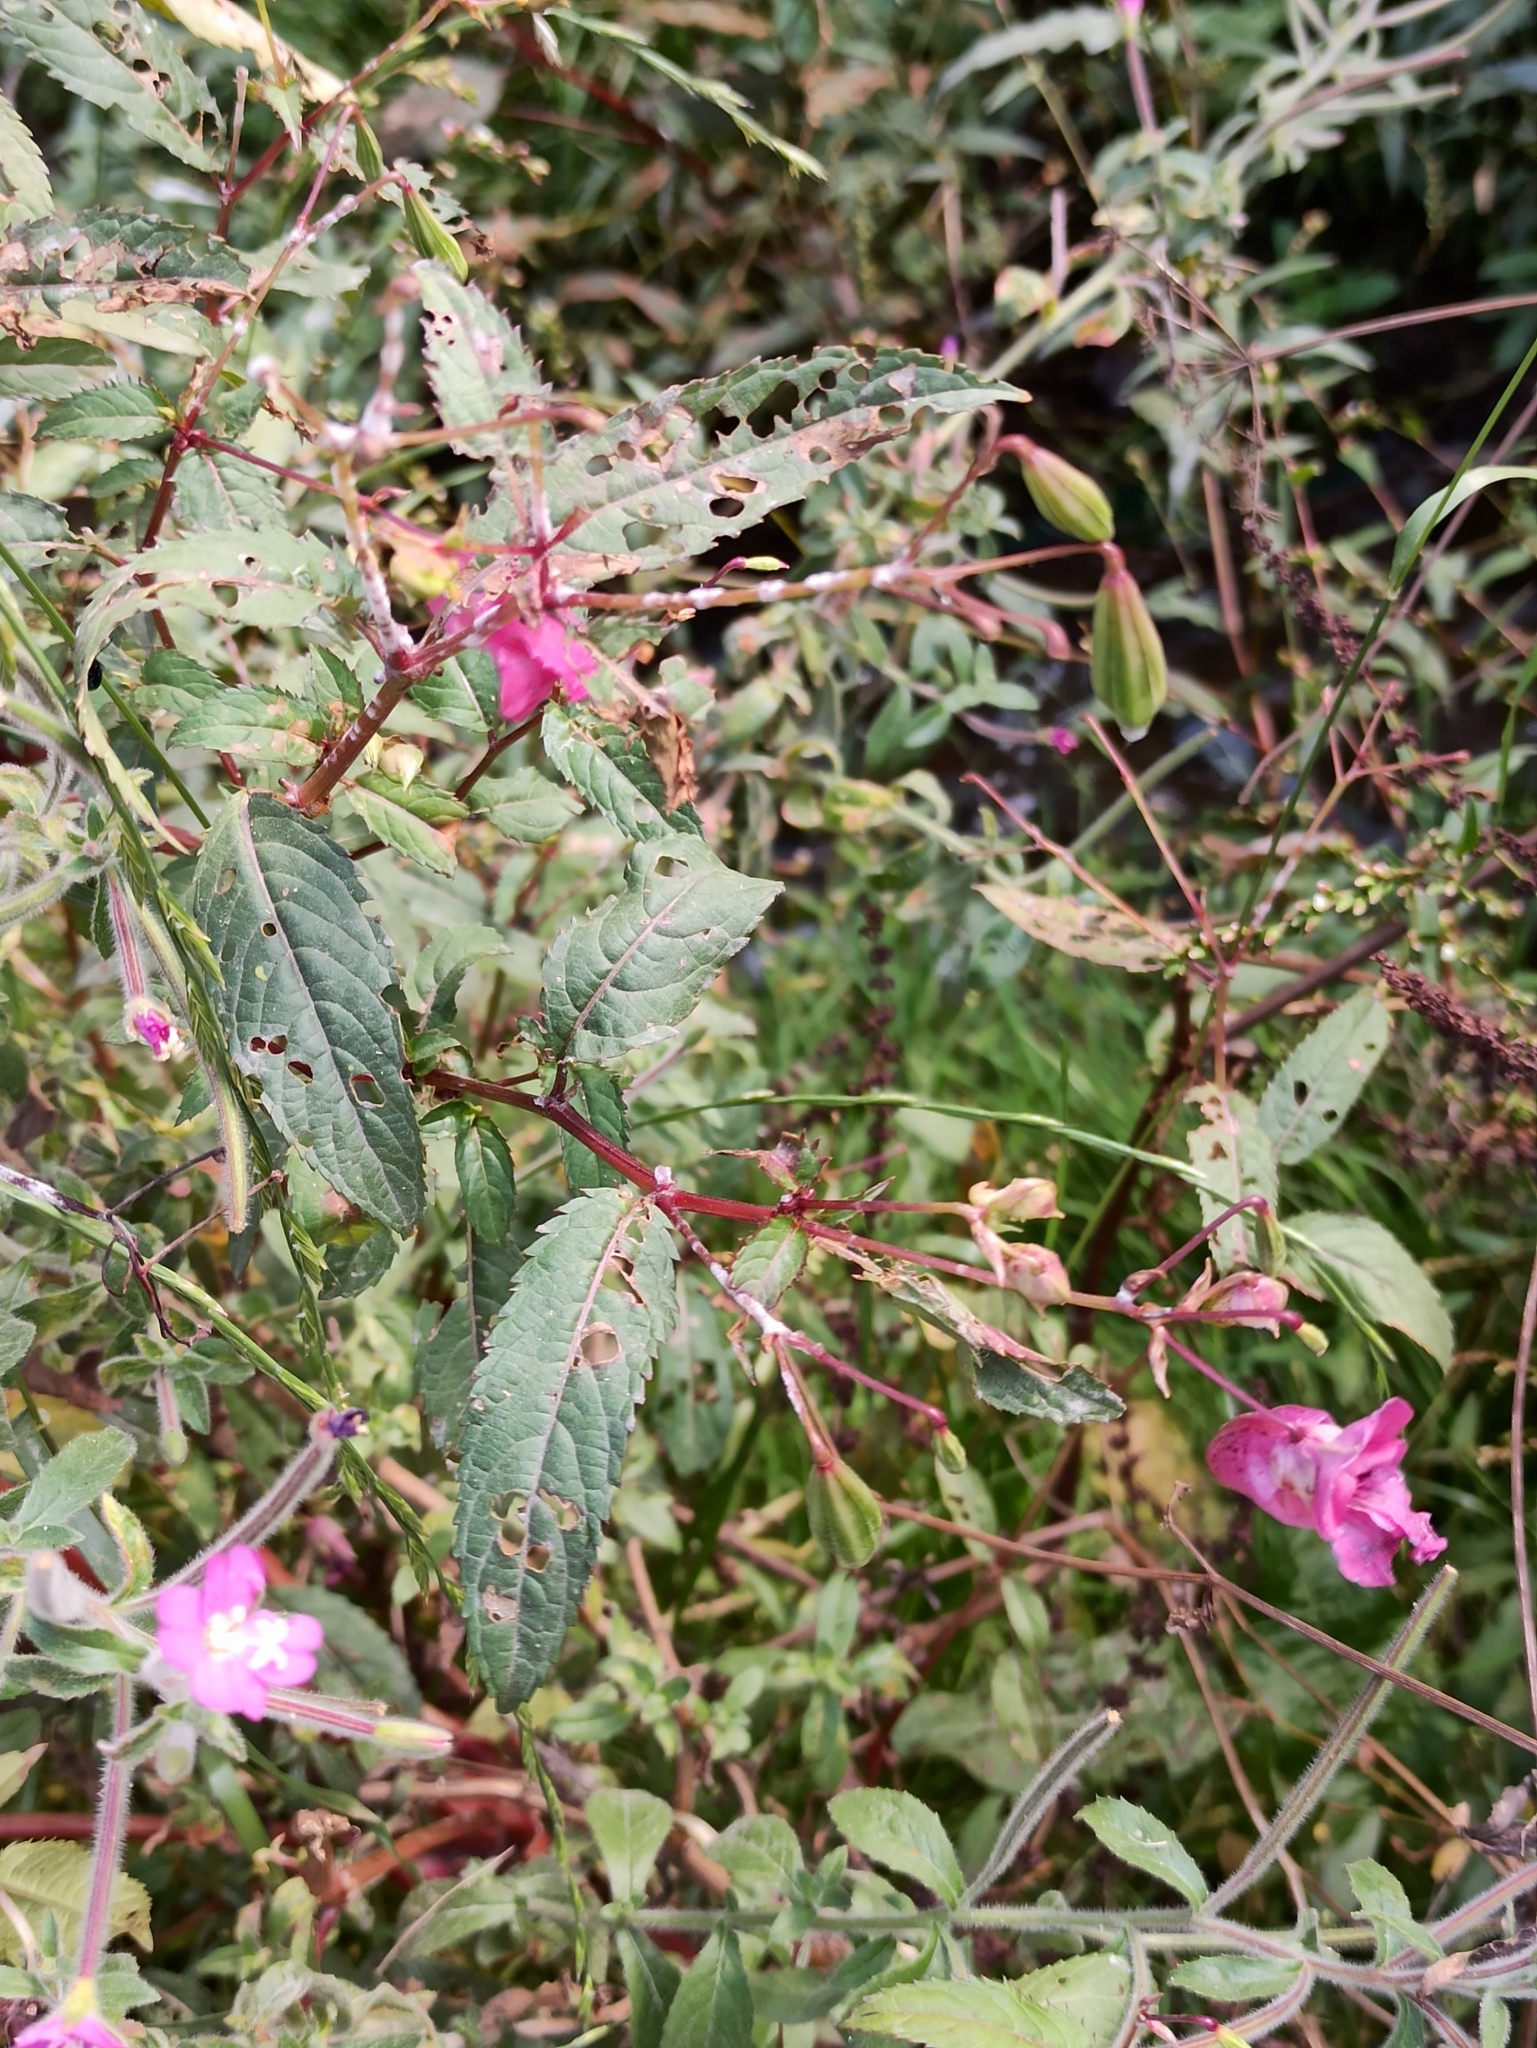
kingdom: Plantae
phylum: Tracheophyta
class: Magnoliopsida
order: Ericales
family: Balsaminaceae
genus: Impatiens
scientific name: Impatiens glandulifera
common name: Himalayan balsam
